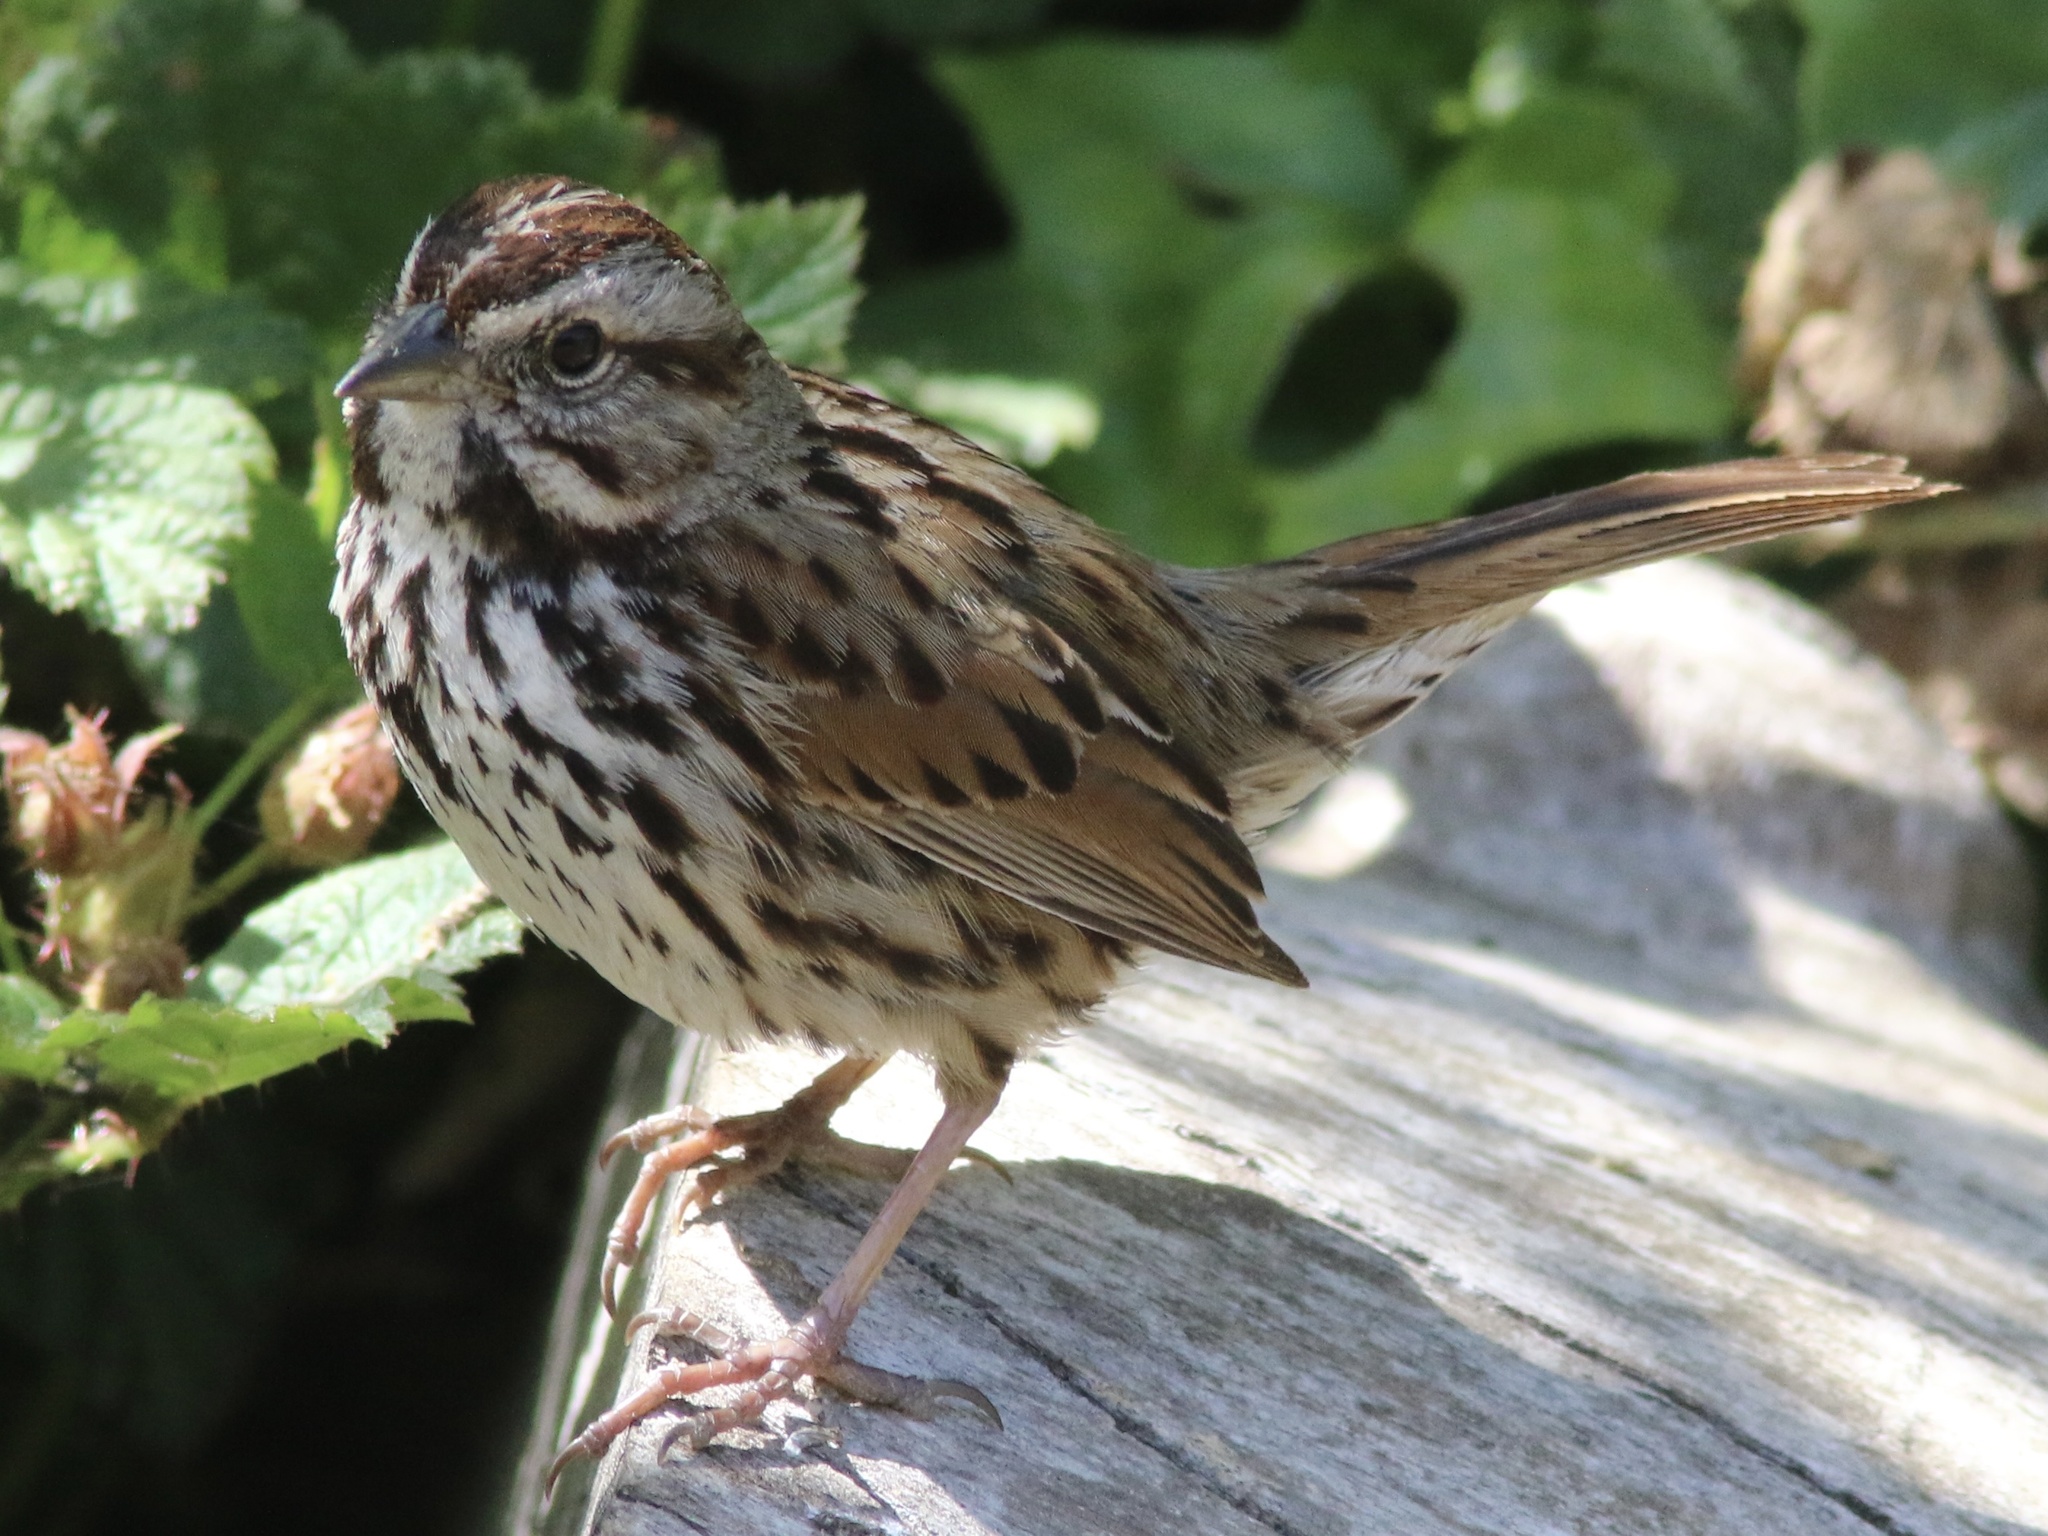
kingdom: Animalia
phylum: Chordata
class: Aves
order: Passeriformes
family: Passerellidae
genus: Melospiza
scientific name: Melospiza melodia
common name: Song sparrow
